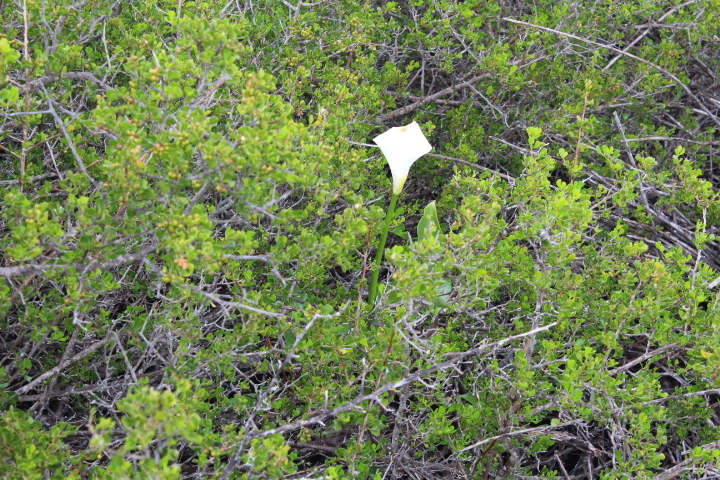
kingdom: Plantae
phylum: Tracheophyta
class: Liliopsida
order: Alismatales
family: Araceae
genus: Zantedeschia
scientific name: Zantedeschia aethiopica
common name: Altar-lily
